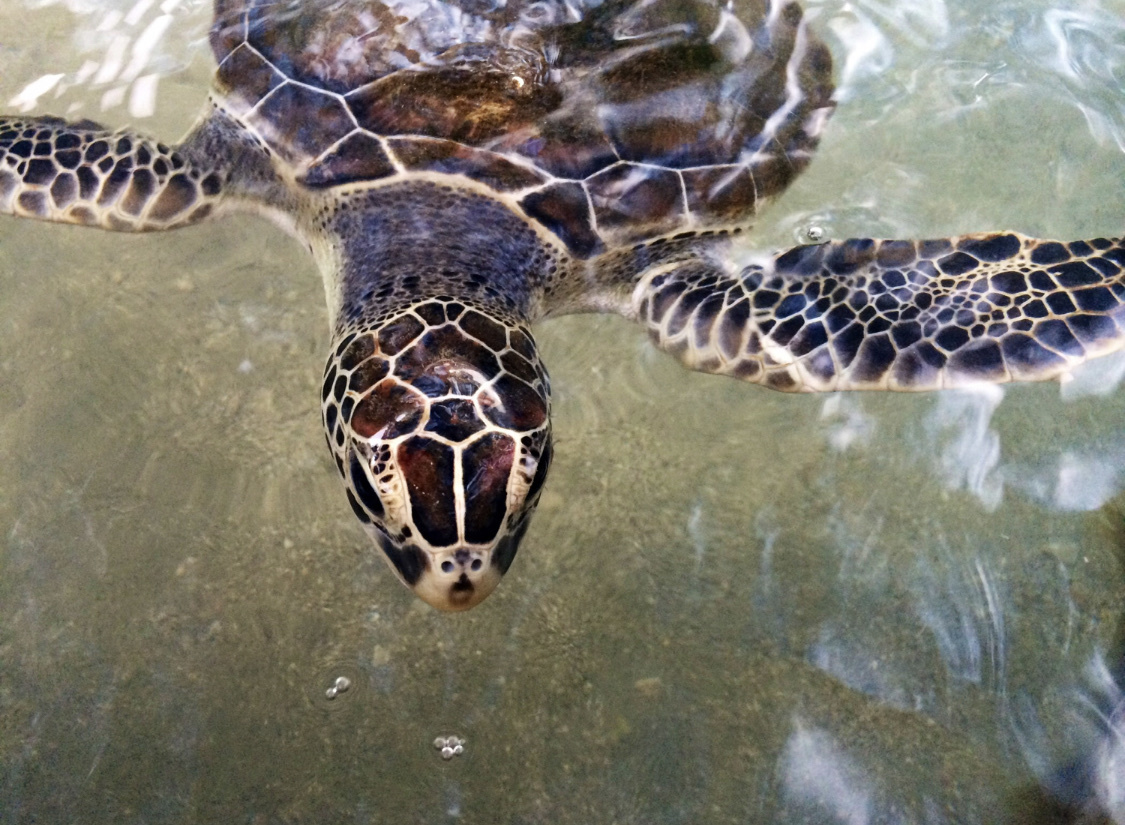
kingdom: Animalia
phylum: Chordata
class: Testudines
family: Cheloniidae
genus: Chelonia
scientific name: Chelonia mydas
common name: Green turtle
